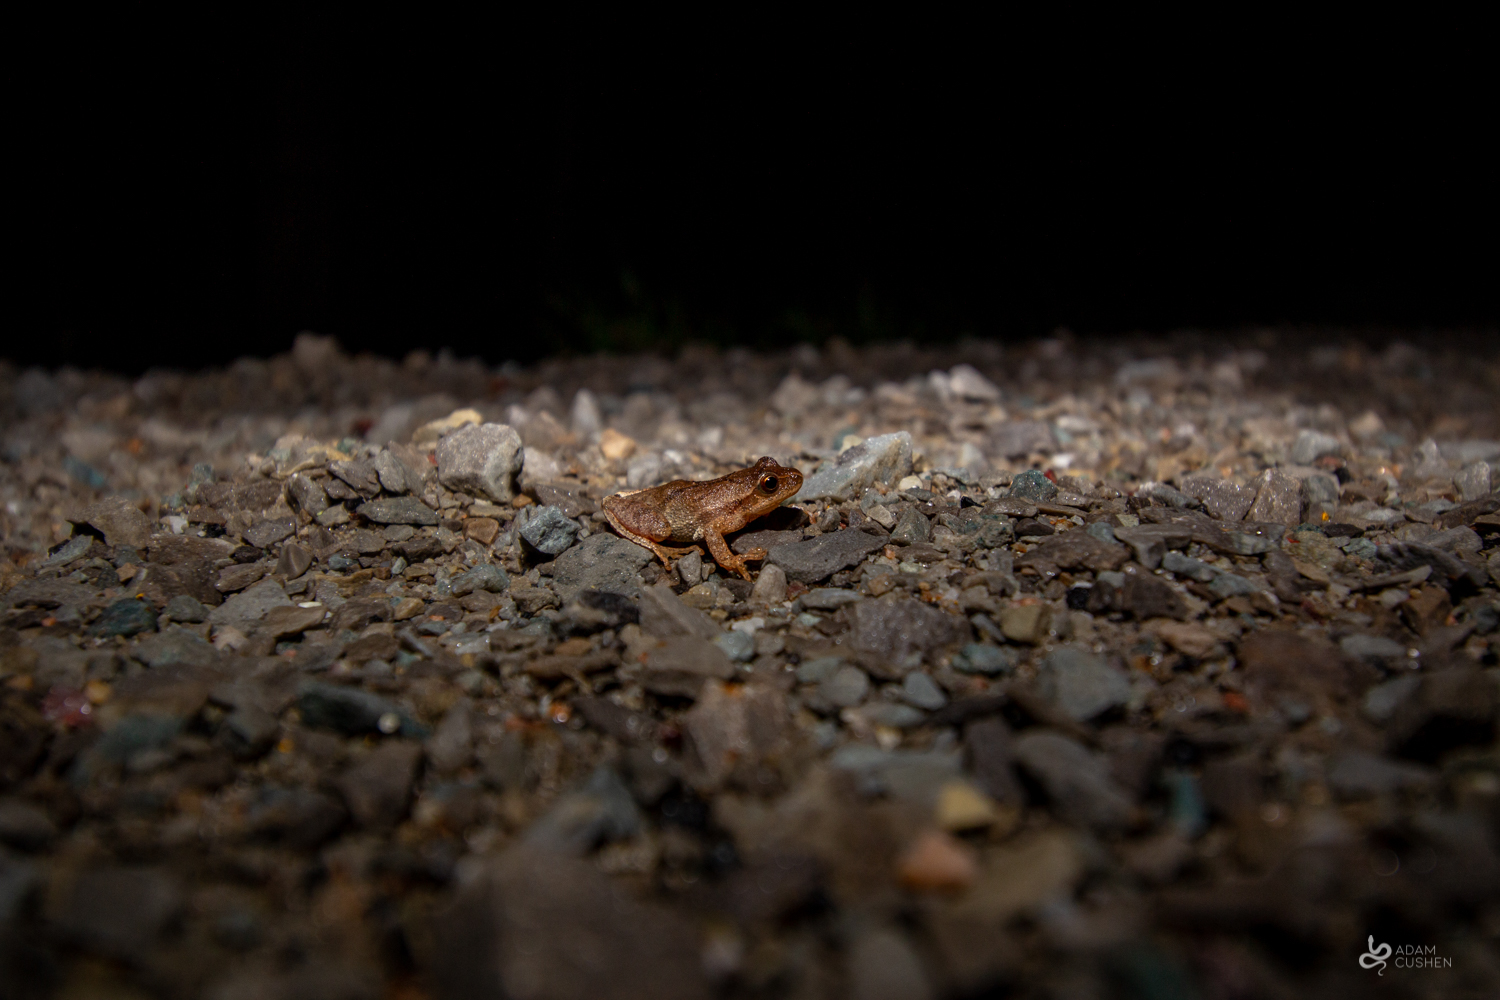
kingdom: Animalia
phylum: Chordata
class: Amphibia
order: Anura
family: Hylidae
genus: Pseudacris
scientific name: Pseudacris crucifer
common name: Spring peeper
